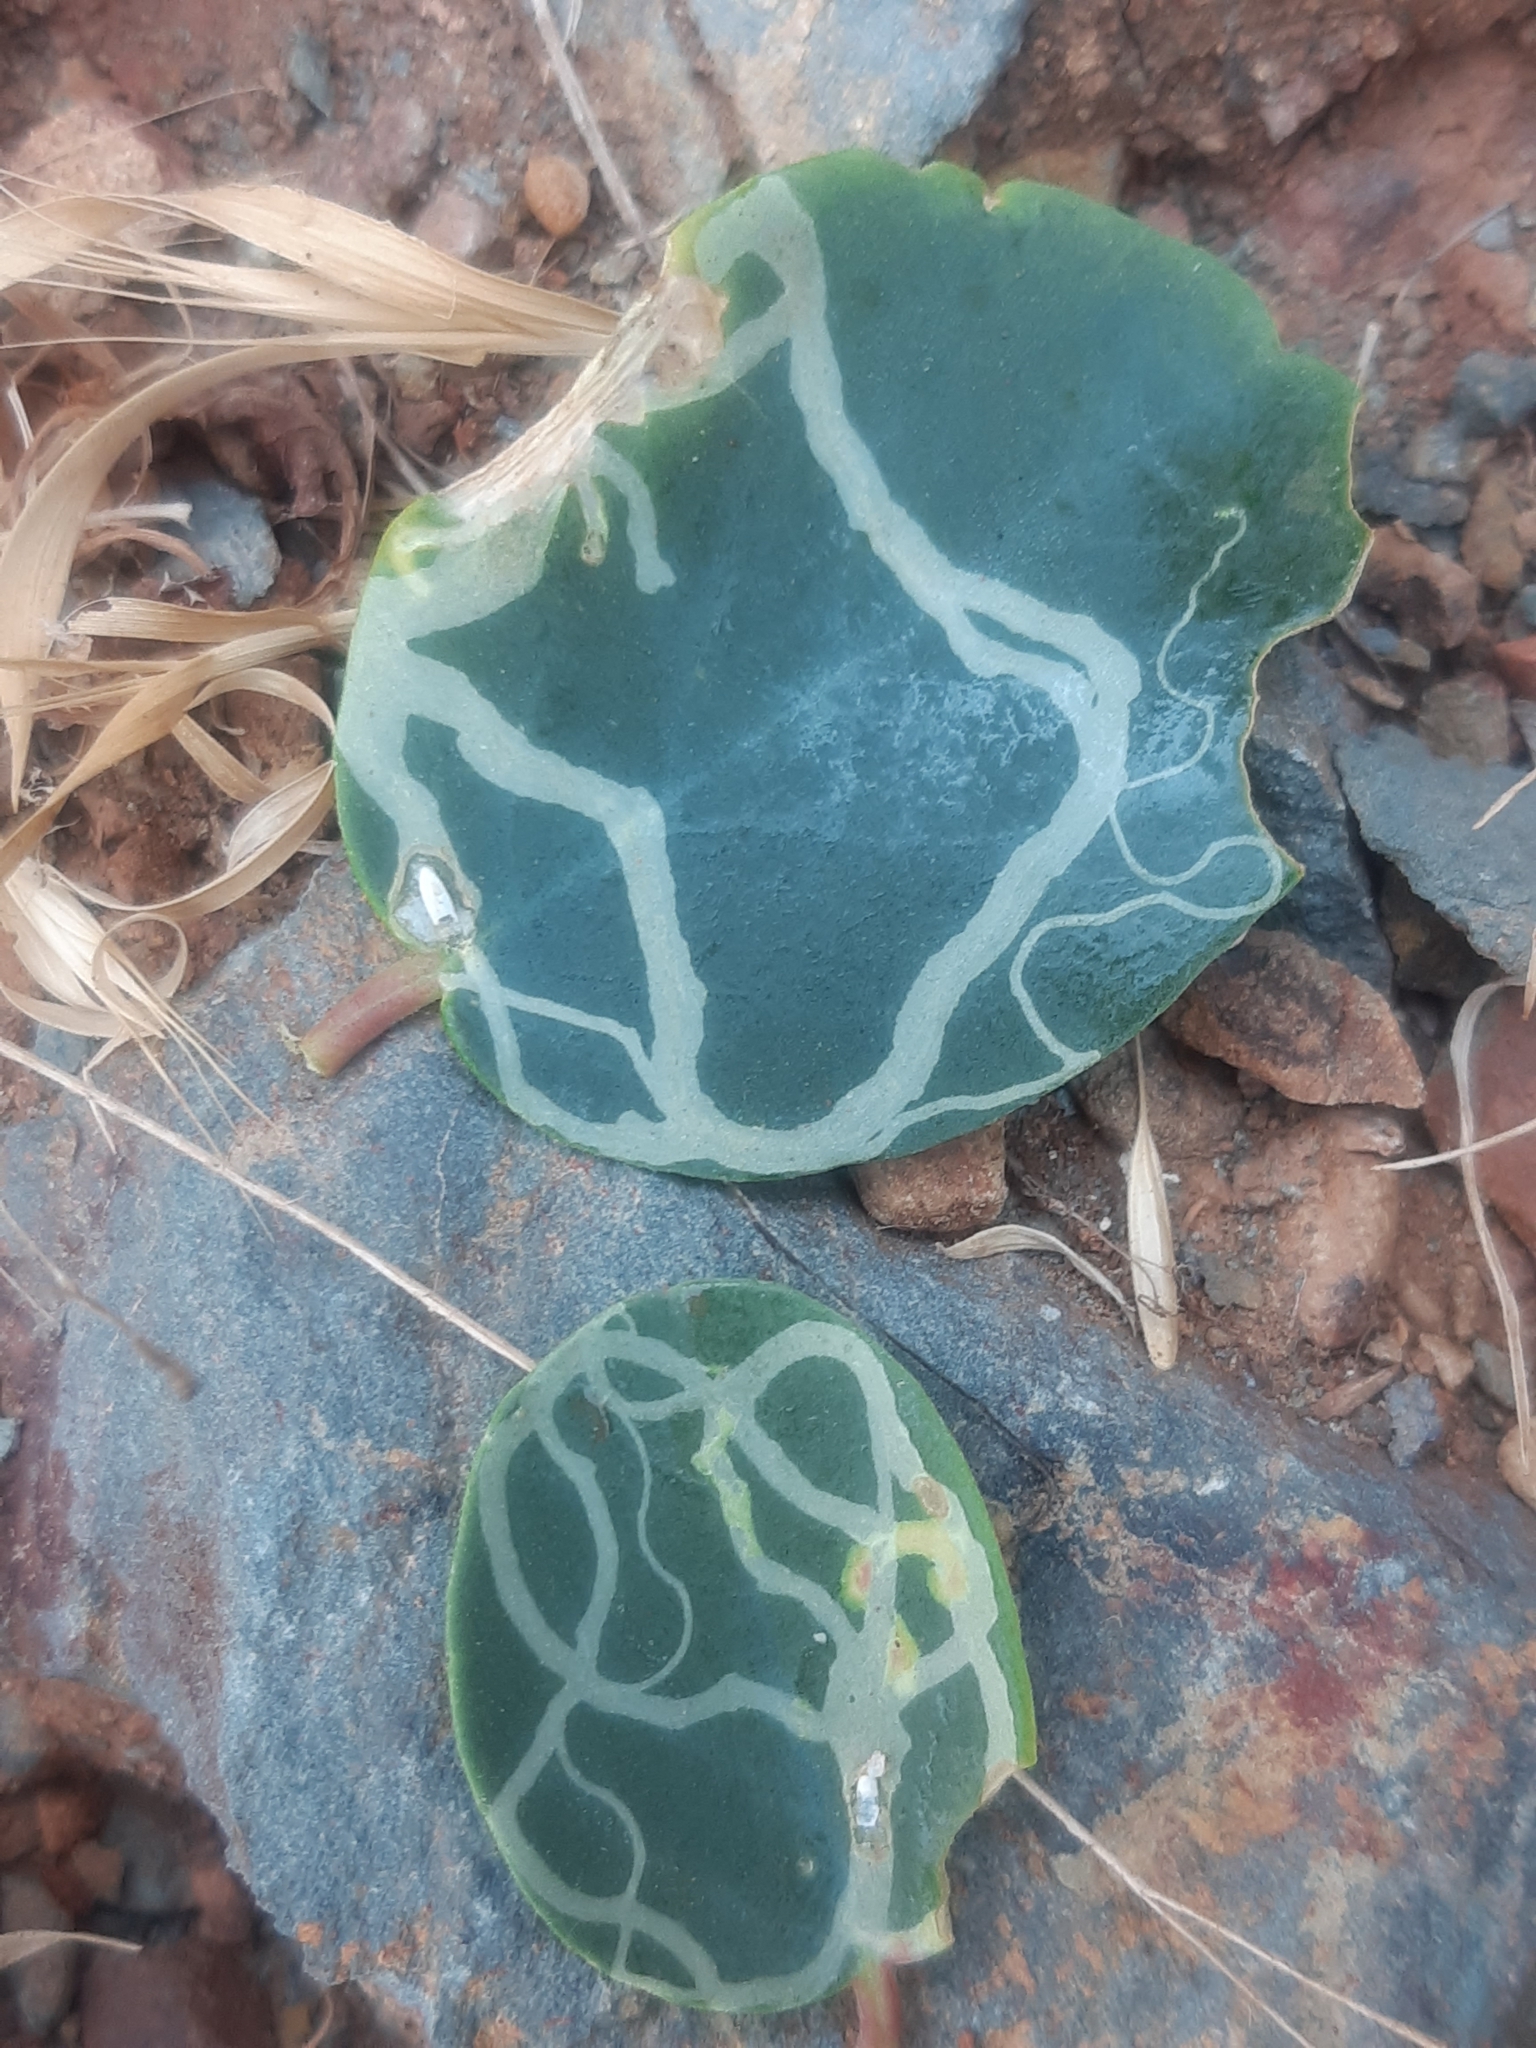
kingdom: Animalia
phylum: Arthropoda
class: Insecta
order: Diptera
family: Agromyzidae
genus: Liriomyza
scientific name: Liriomyza bryoniae
